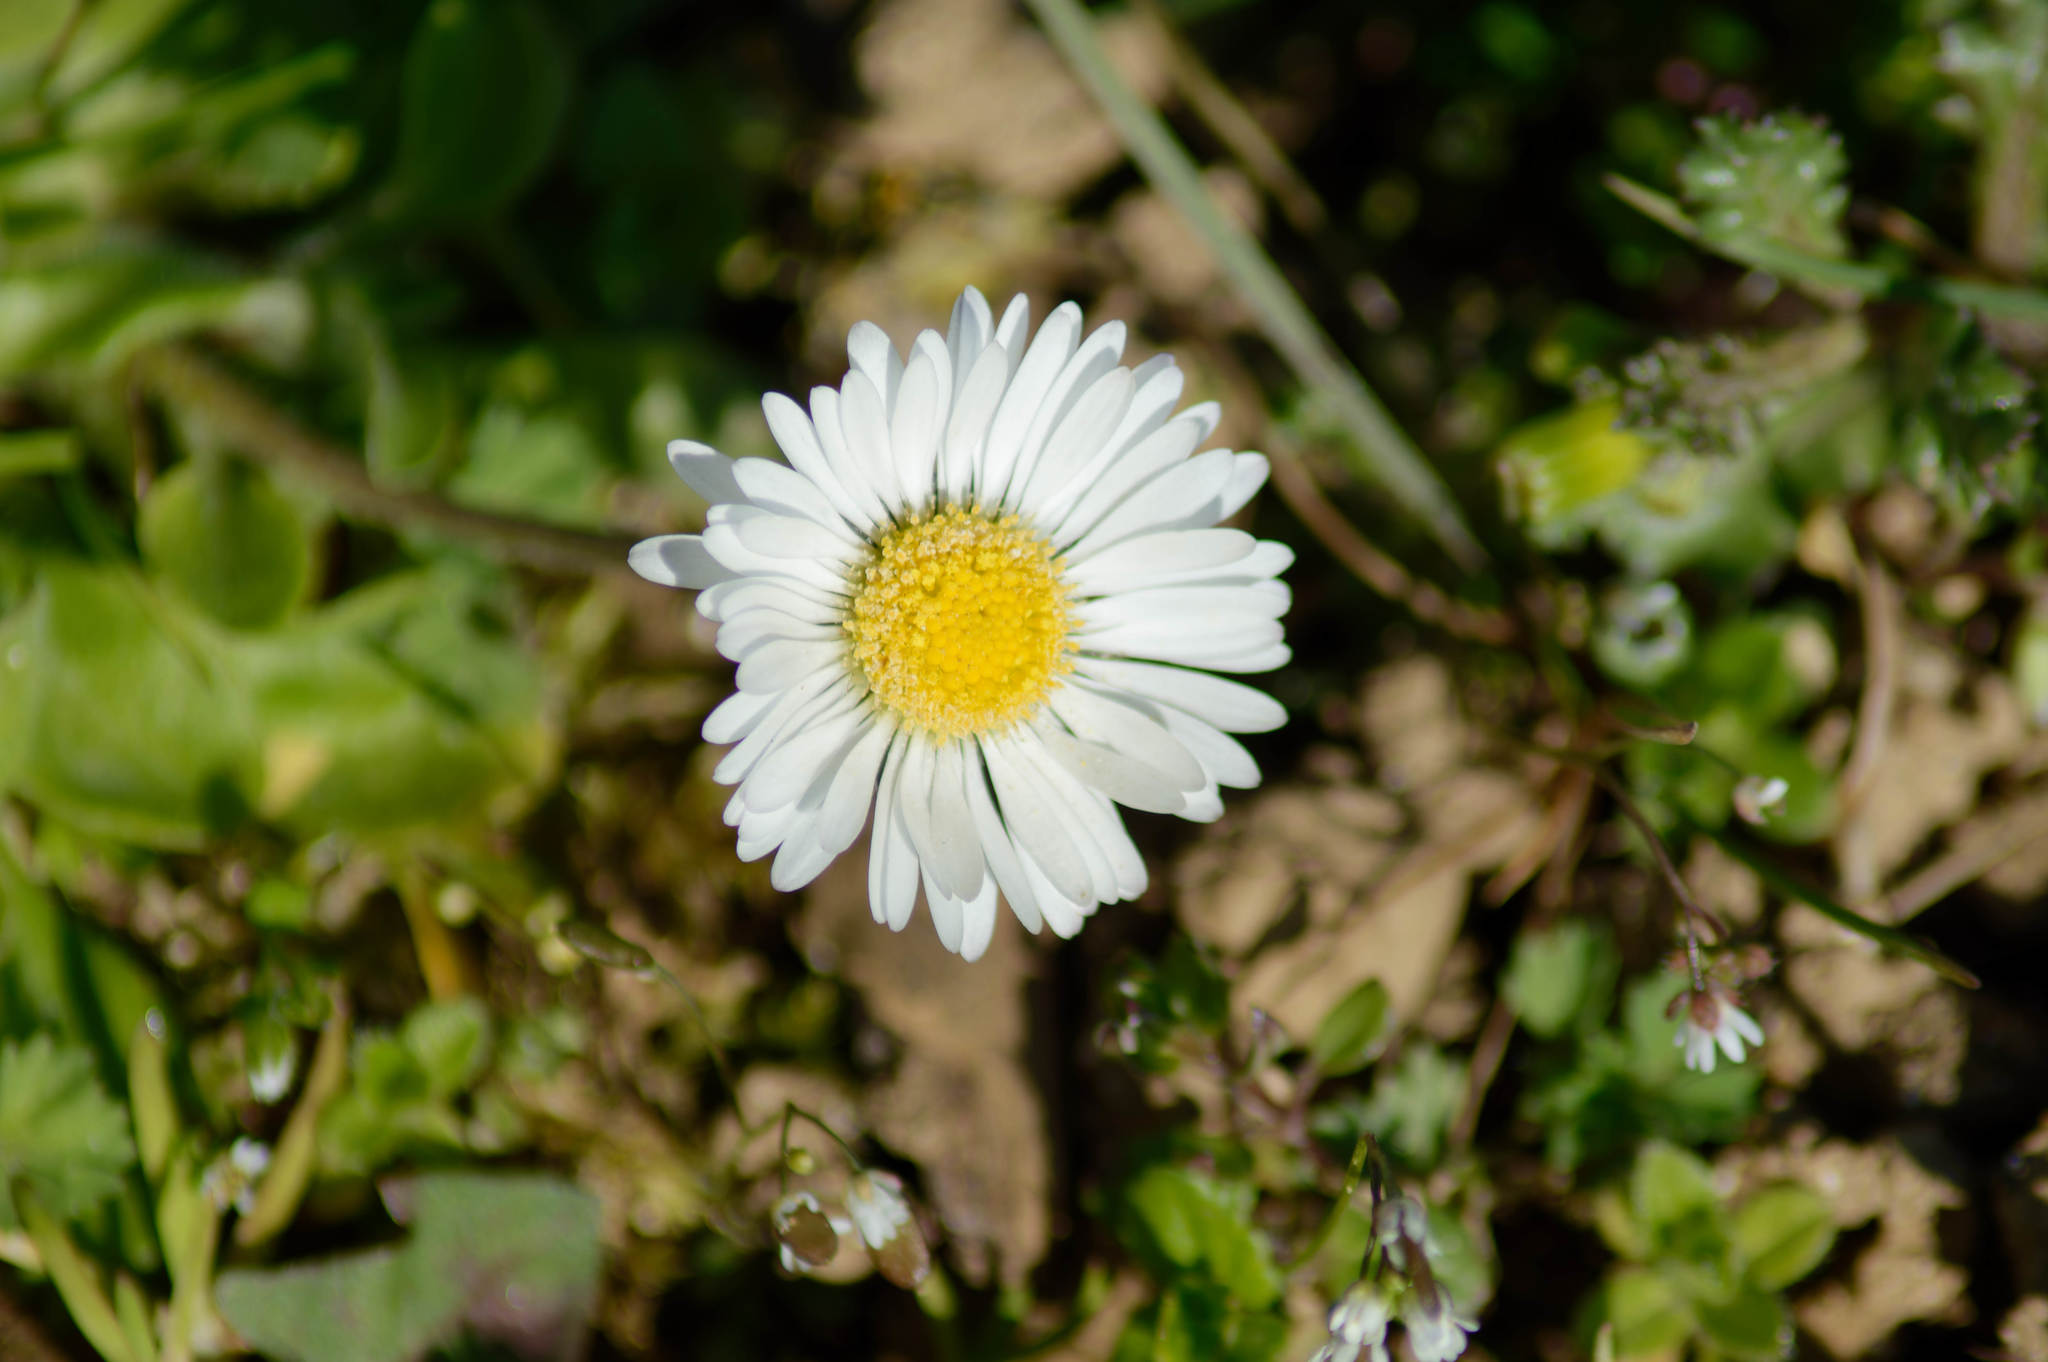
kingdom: Plantae
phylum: Tracheophyta
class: Magnoliopsida
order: Asterales
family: Asteraceae
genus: Bellis
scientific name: Bellis perennis
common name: Lawndaisy
